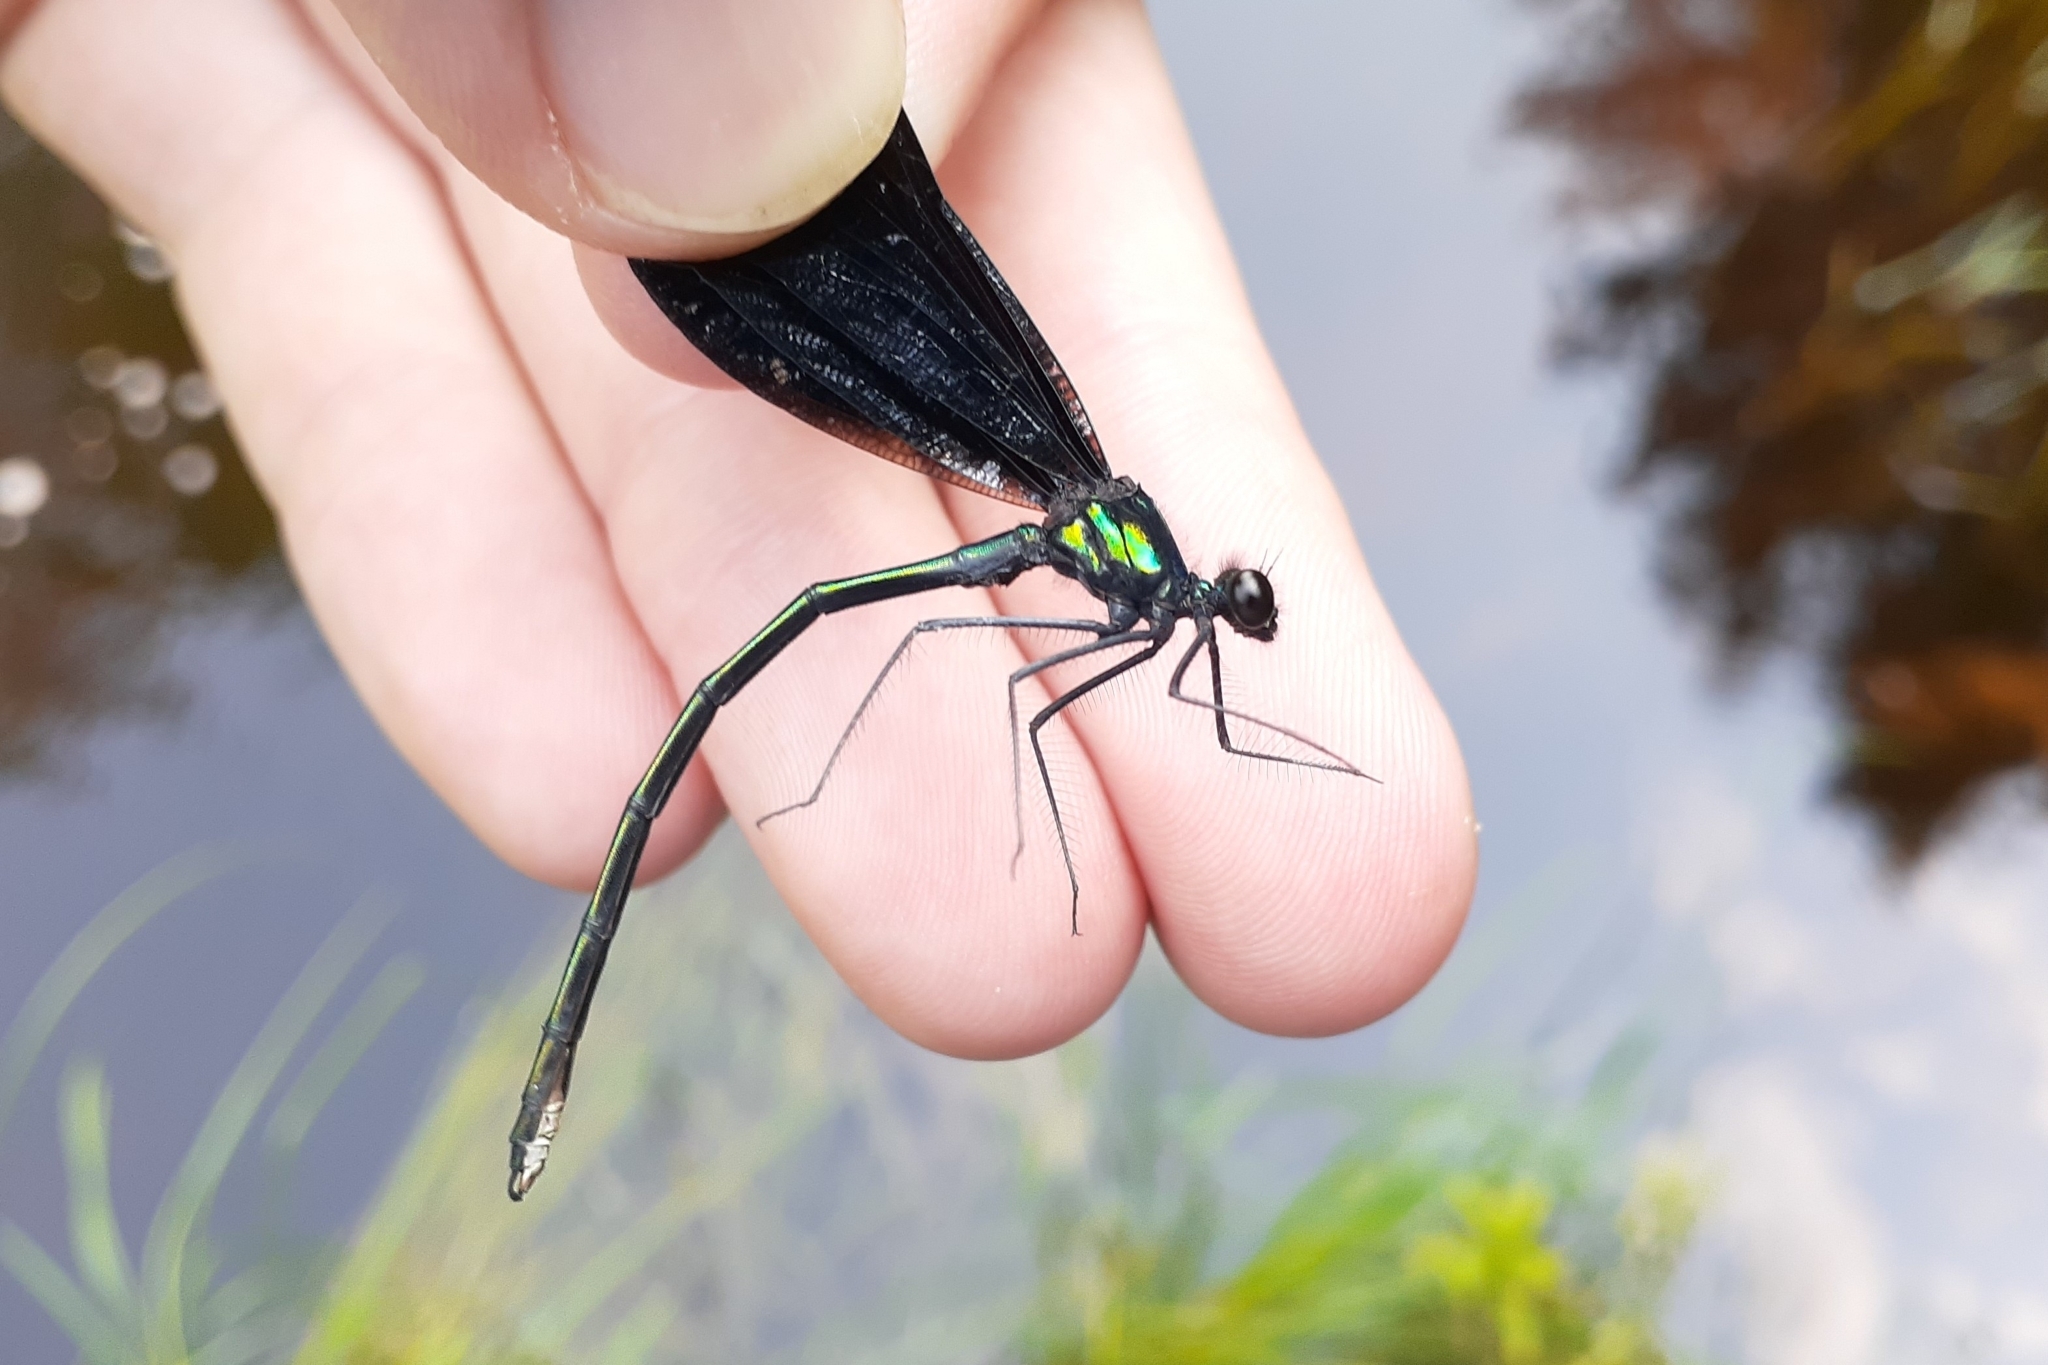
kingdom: Animalia
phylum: Arthropoda
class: Insecta
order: Odonata
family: Calopterygidae
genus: Calopteryx
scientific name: Calopteryx maculata
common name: Ebony jewelwing
